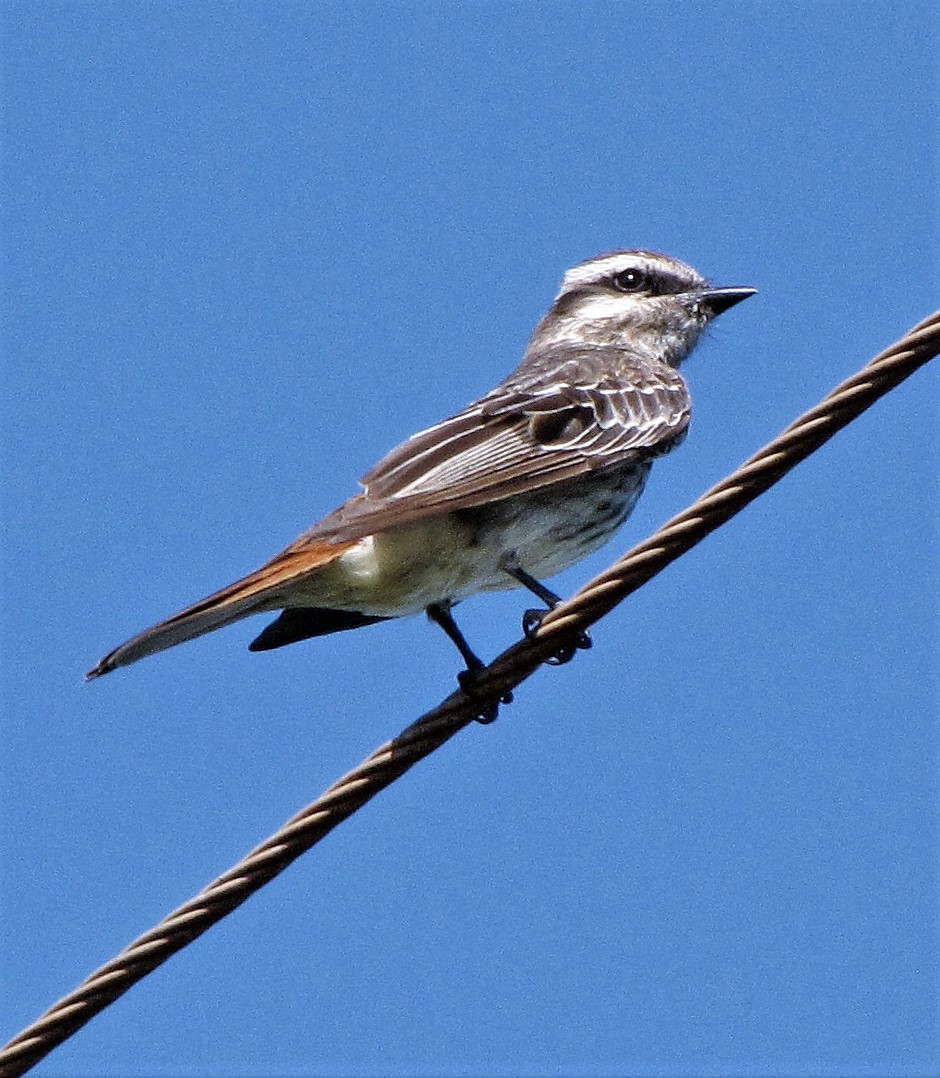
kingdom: Animalia
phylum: Chordata
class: Aves
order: Passeriformes
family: Tyrannidae
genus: Empidonomus
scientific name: Empidonomus varius
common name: Variegated flycatcher
